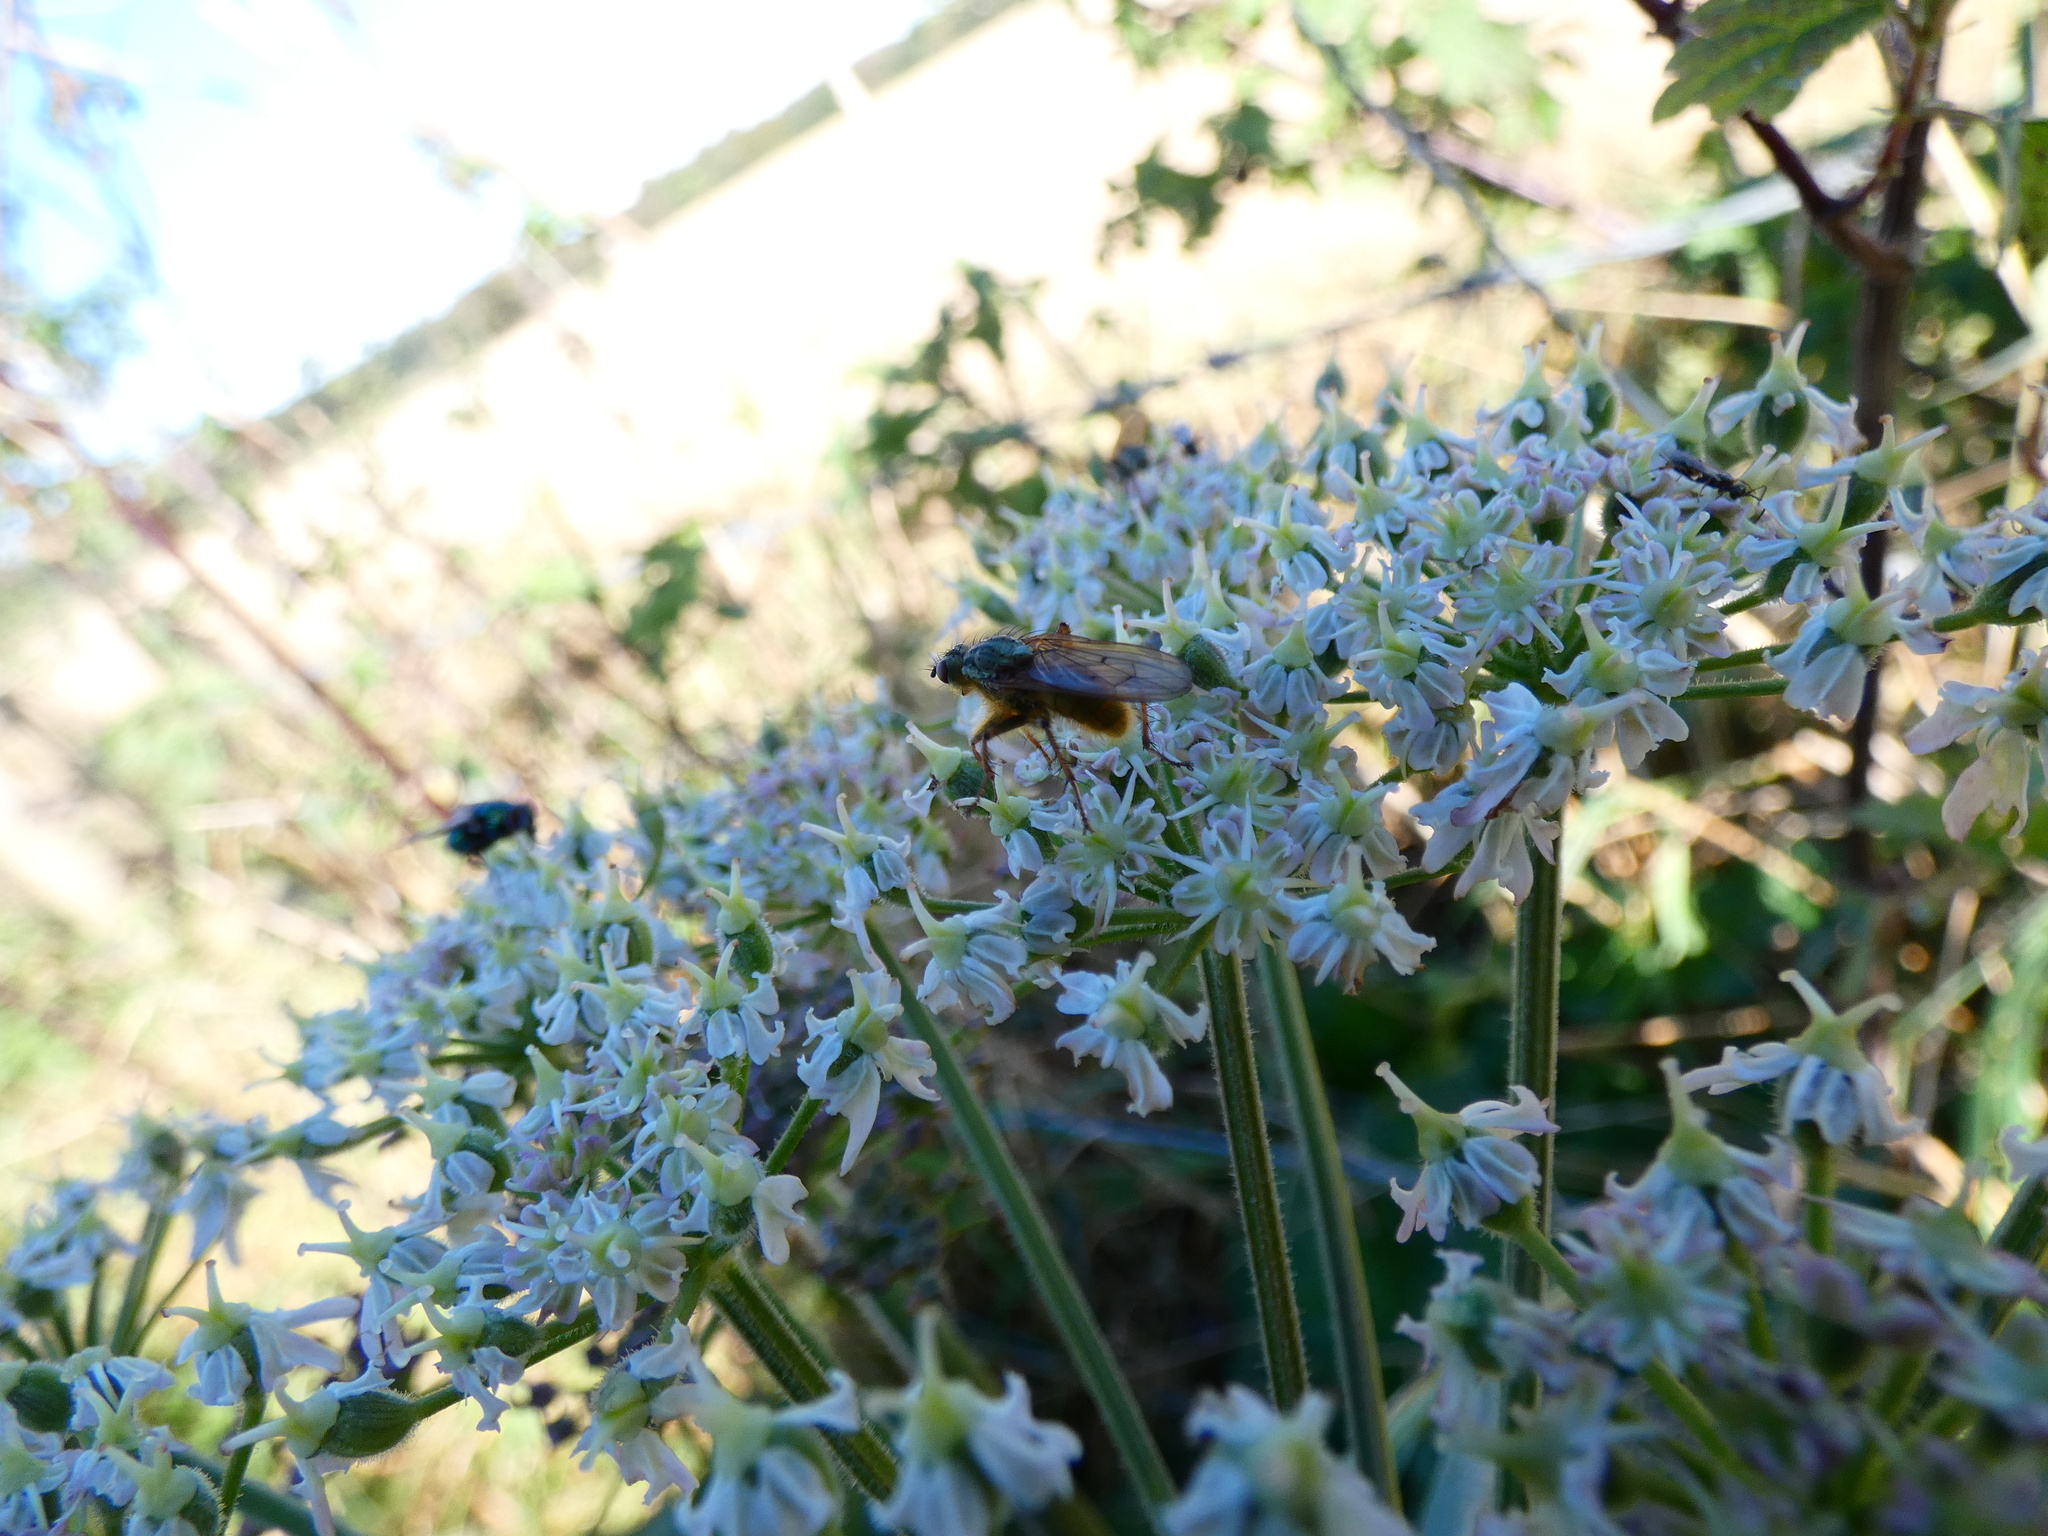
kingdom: Animalia
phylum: Arthropoda
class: Insecta
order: Diptera
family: Scathophagidae
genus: Scathophaga
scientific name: Scathophaga stercoraria
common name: Yellow dung fly
